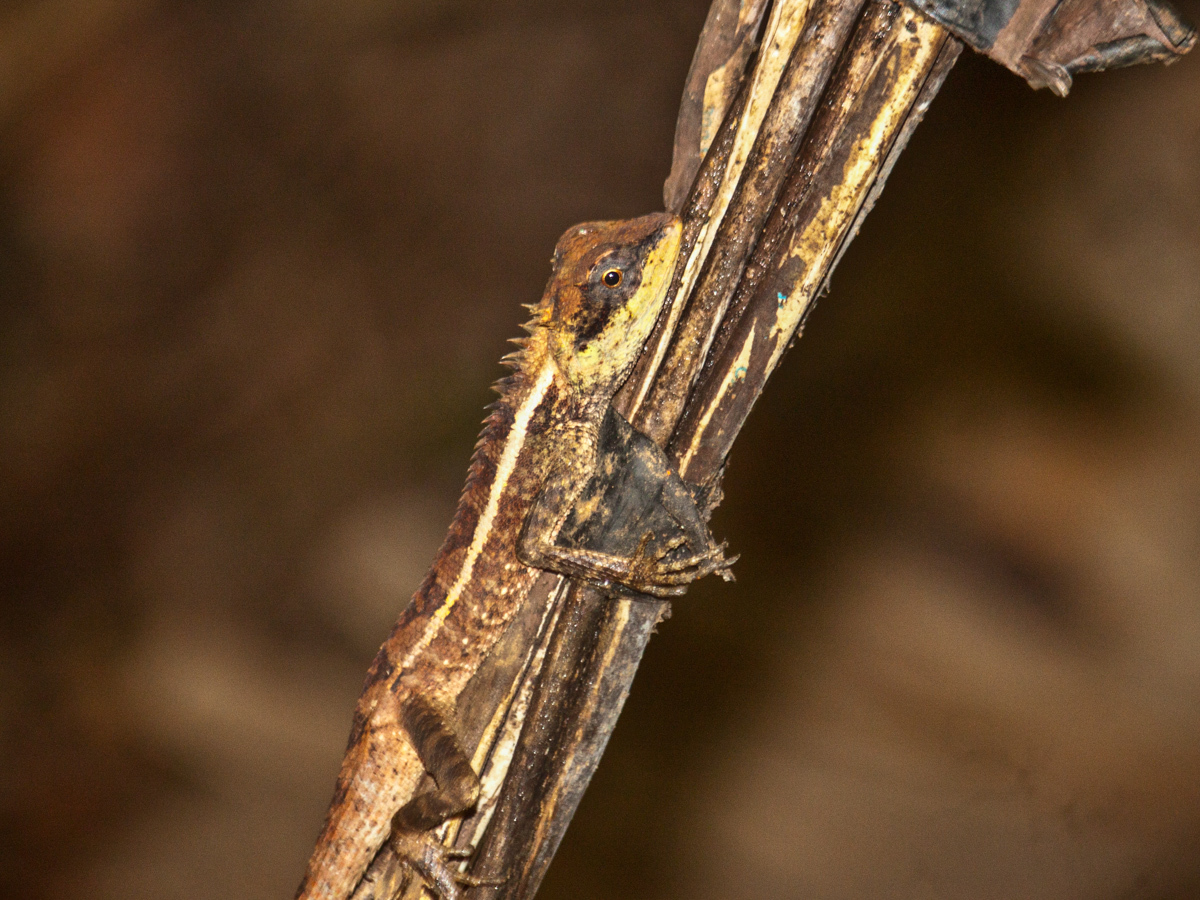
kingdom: Animalia
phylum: Chordata
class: Squamata
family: Agamidae
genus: Calotes
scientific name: Calotes emma
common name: Thailand bloodsucker
